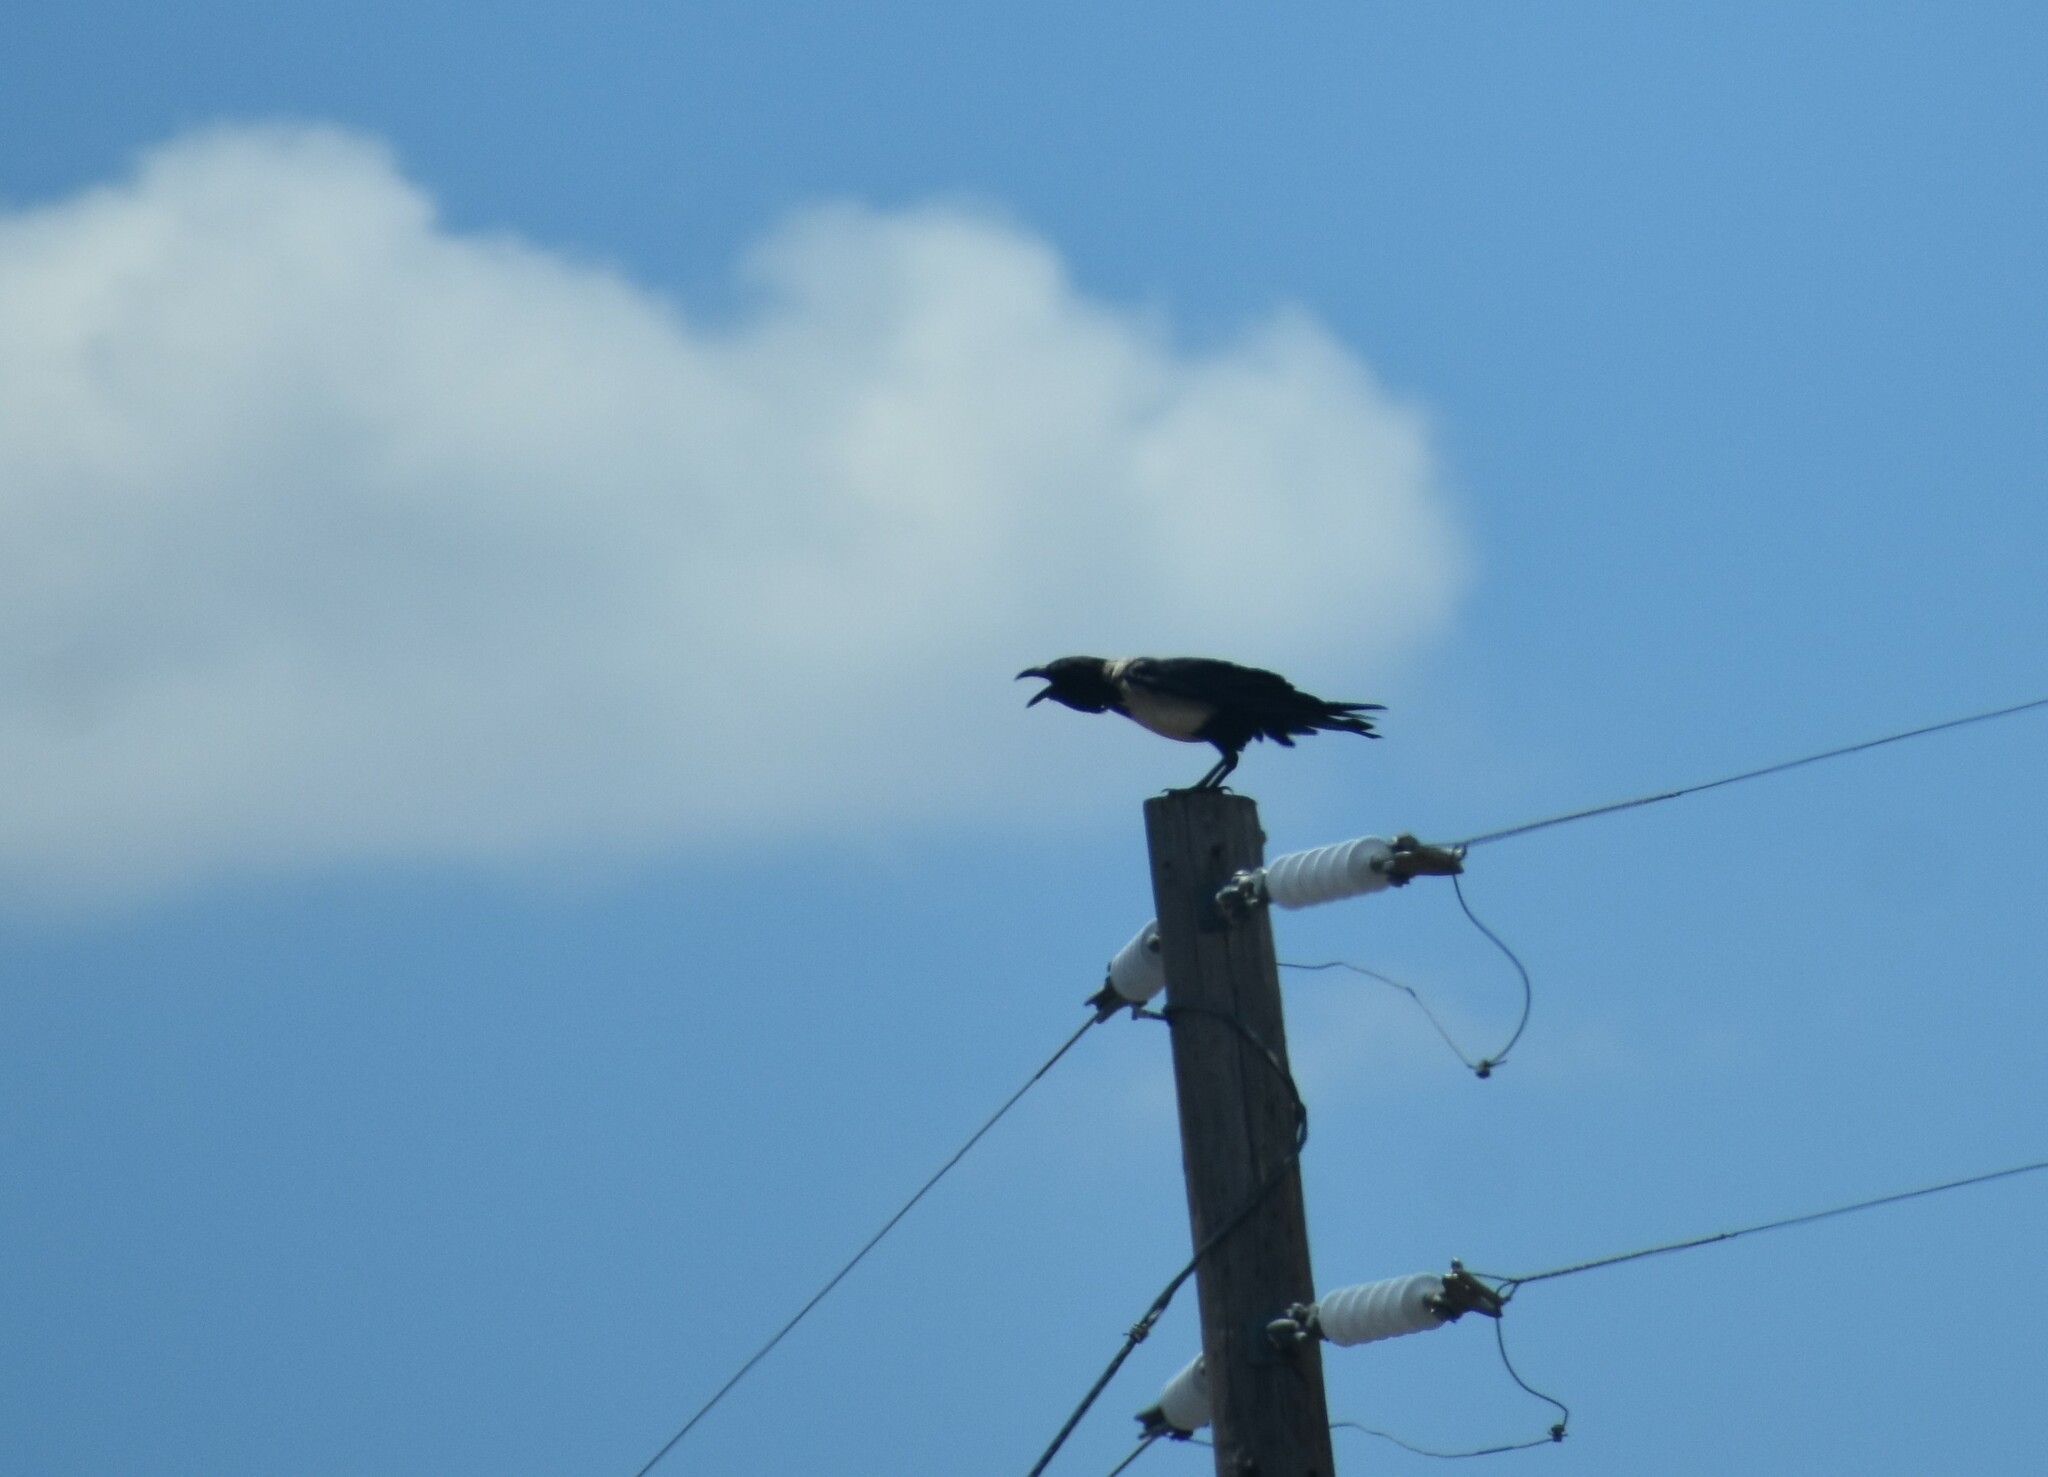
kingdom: Animalia
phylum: Chordata
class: Aves
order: Passeriformes
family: Corvidae
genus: Corvus
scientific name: Corvus albus
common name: Pied crow
